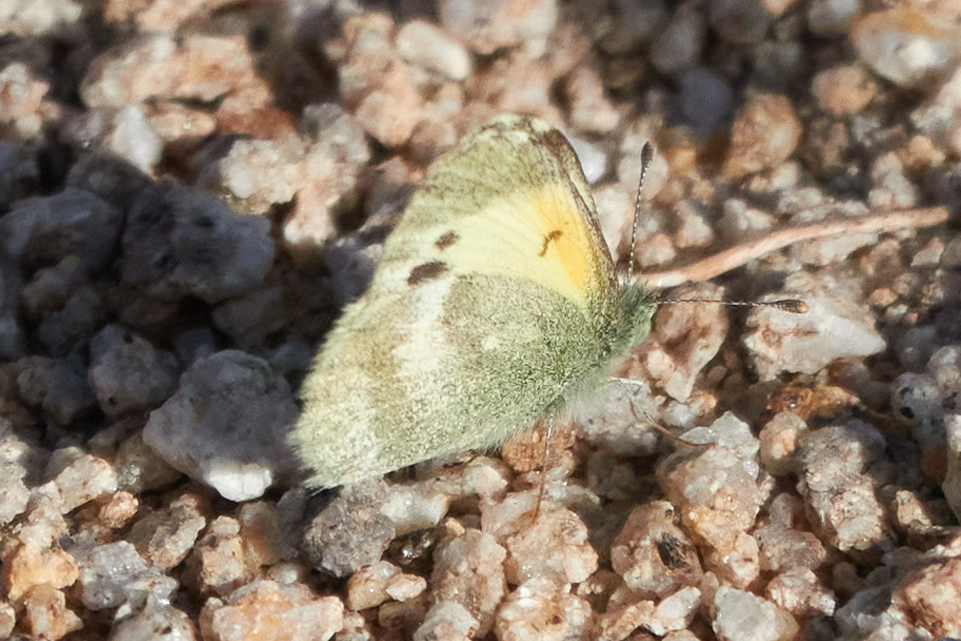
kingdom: Animalia
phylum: Arthropoda
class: Insecta
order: Lepidoptera
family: Pieridae
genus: Nathalis
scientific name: Nathalis iole
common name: Dainty sulphur
